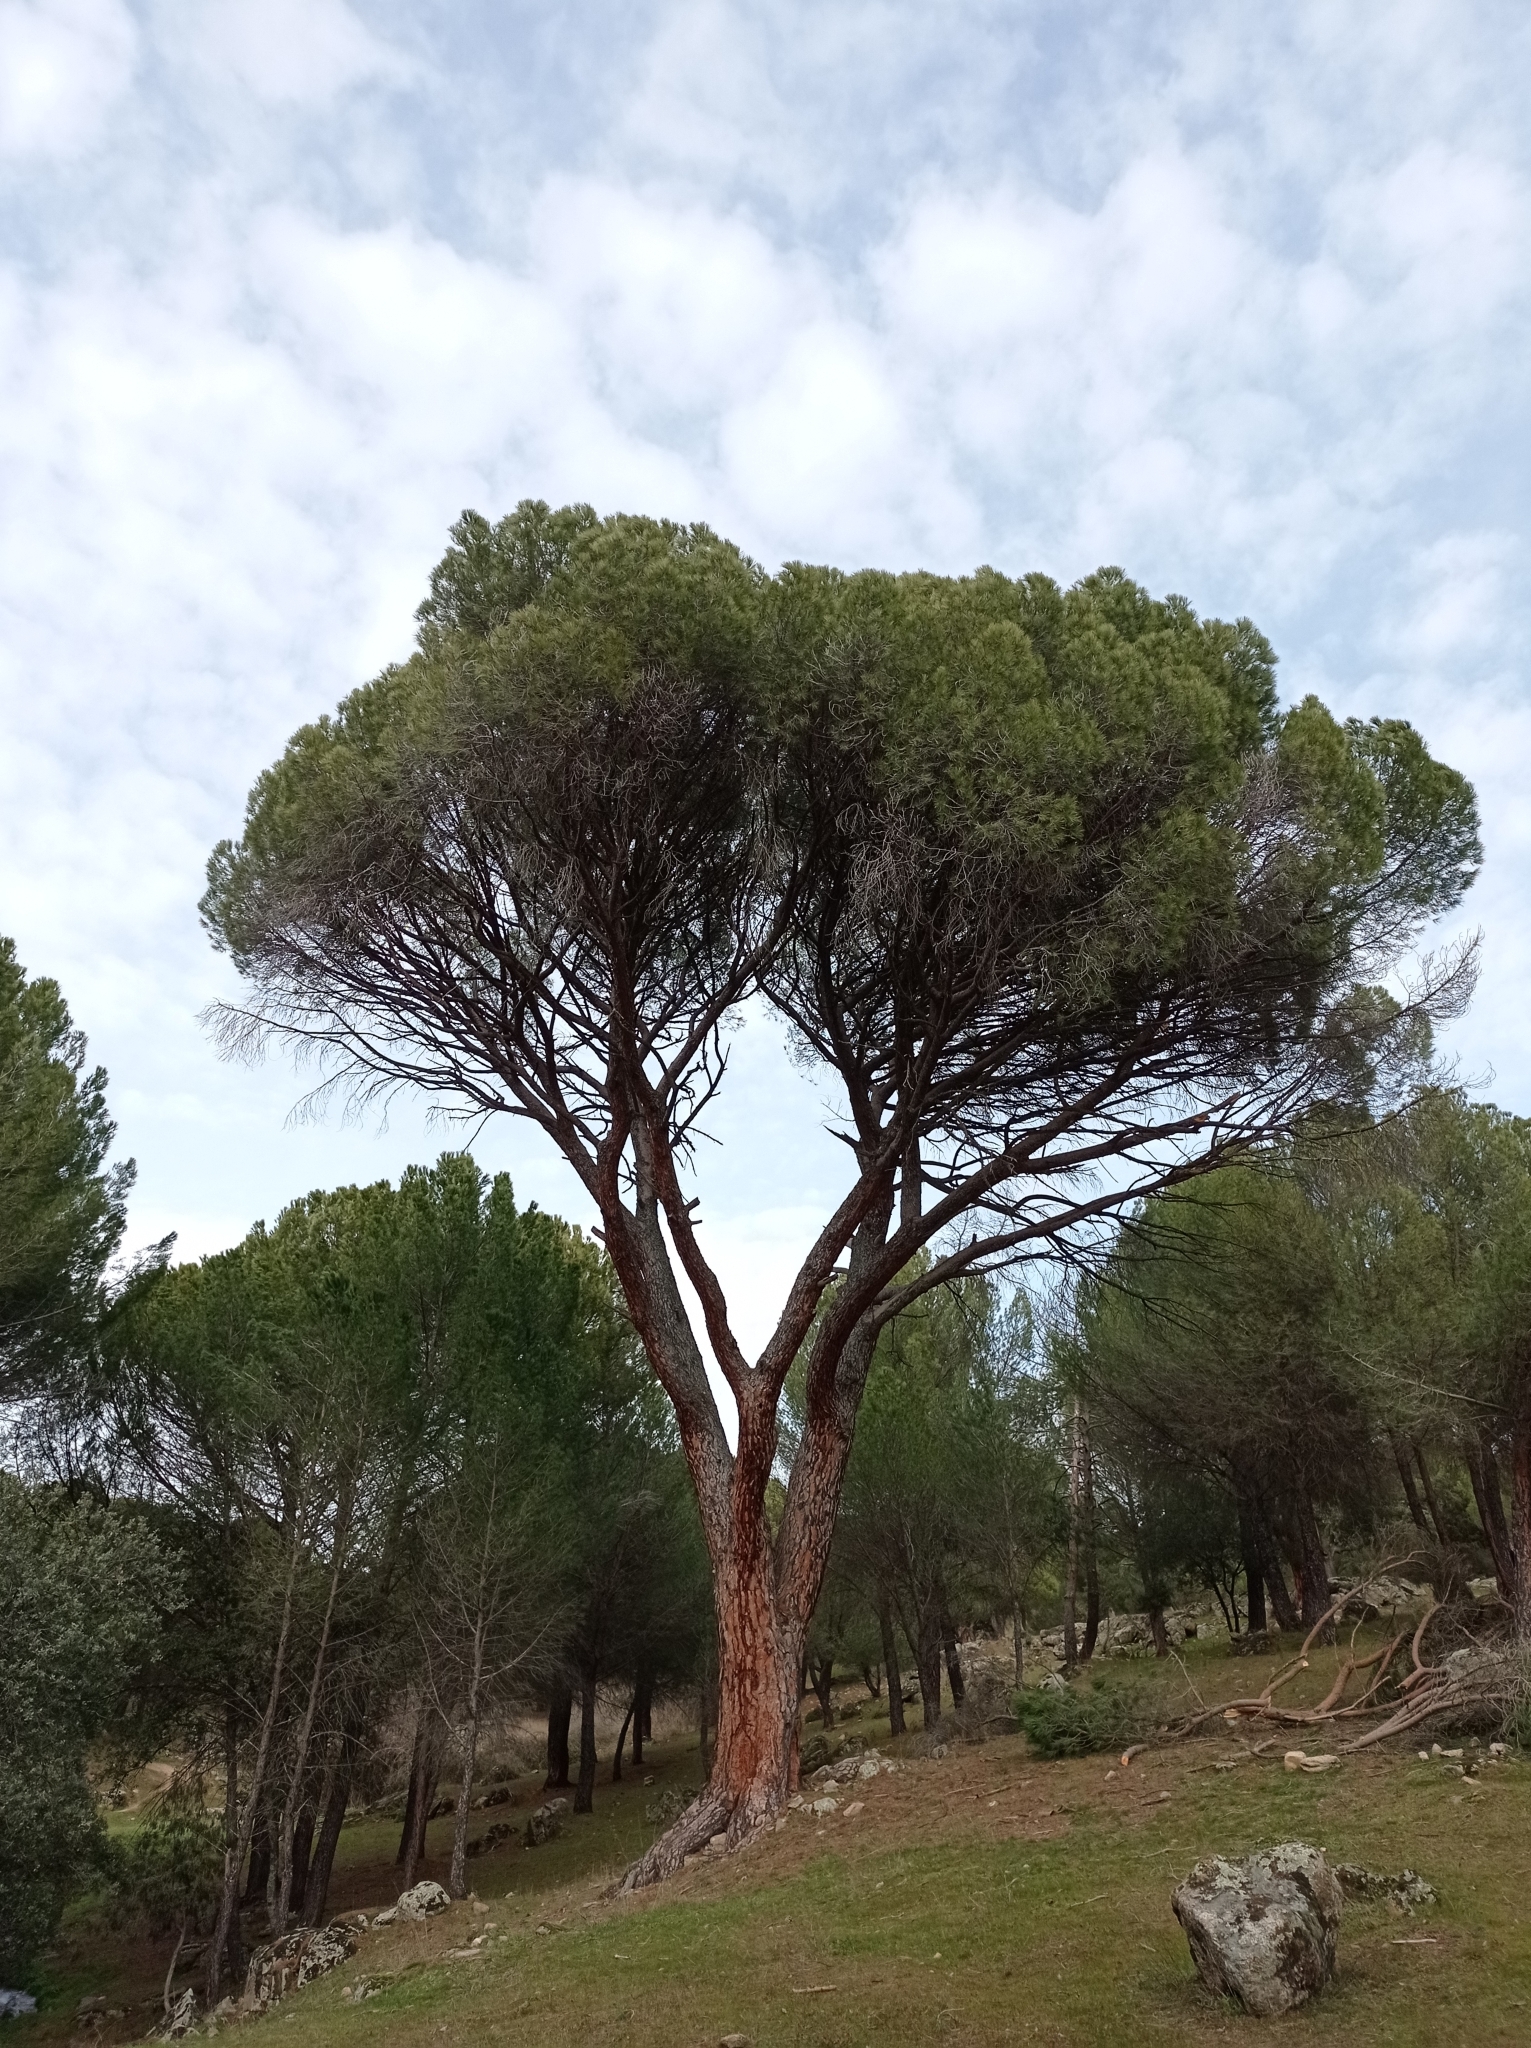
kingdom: Plantae
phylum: Tracheophyta
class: Pinopsida
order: Pinales
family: Pinaceae
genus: Pinus
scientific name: Pinus pinea
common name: Italian stone pine
